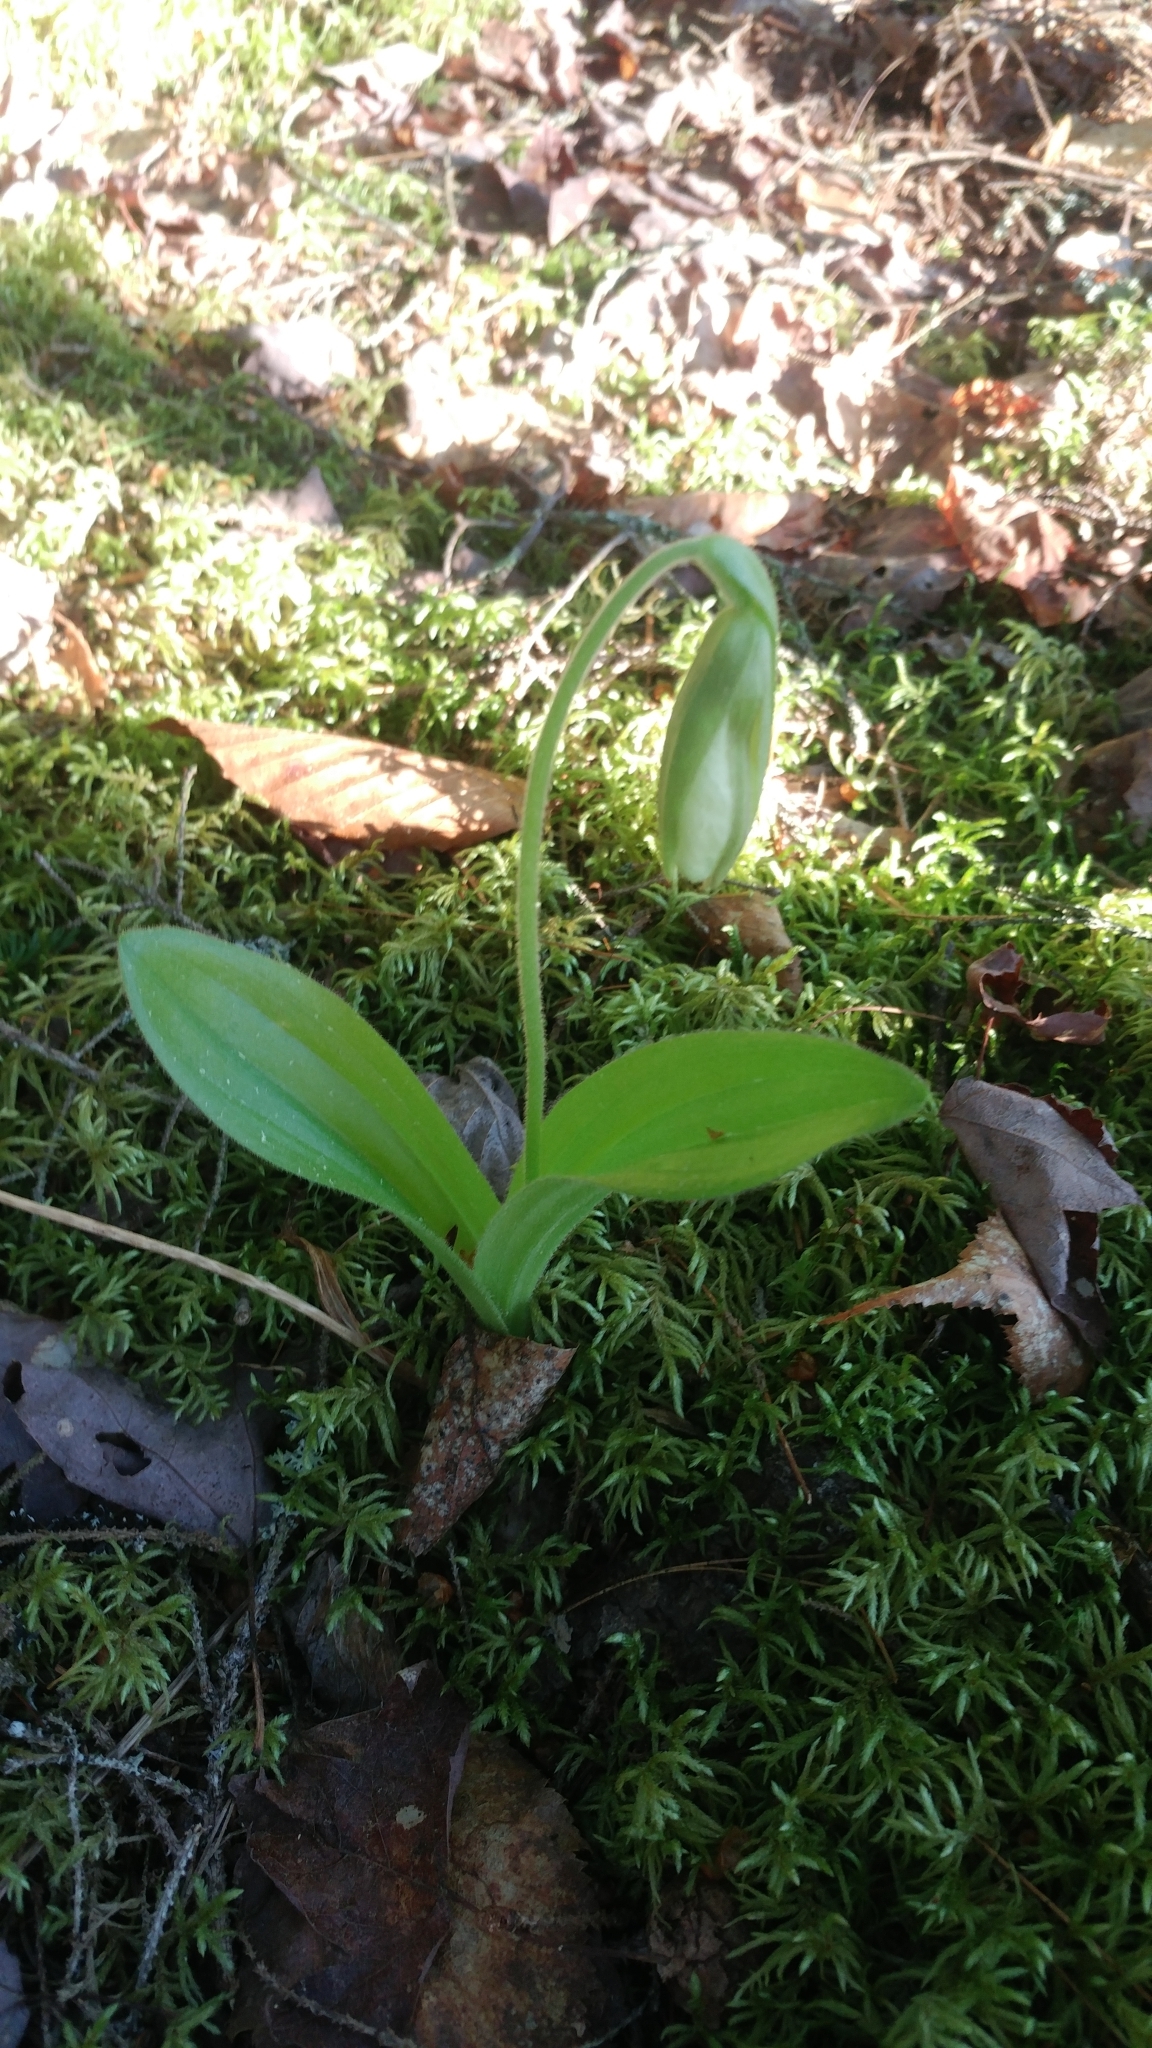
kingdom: Plantae
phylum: Tracheophyta
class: Liliopsida
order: Asparagales
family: Orchidaceae
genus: Cypripedium
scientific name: Cypripedium acaule
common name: Pink lady's-slipper
